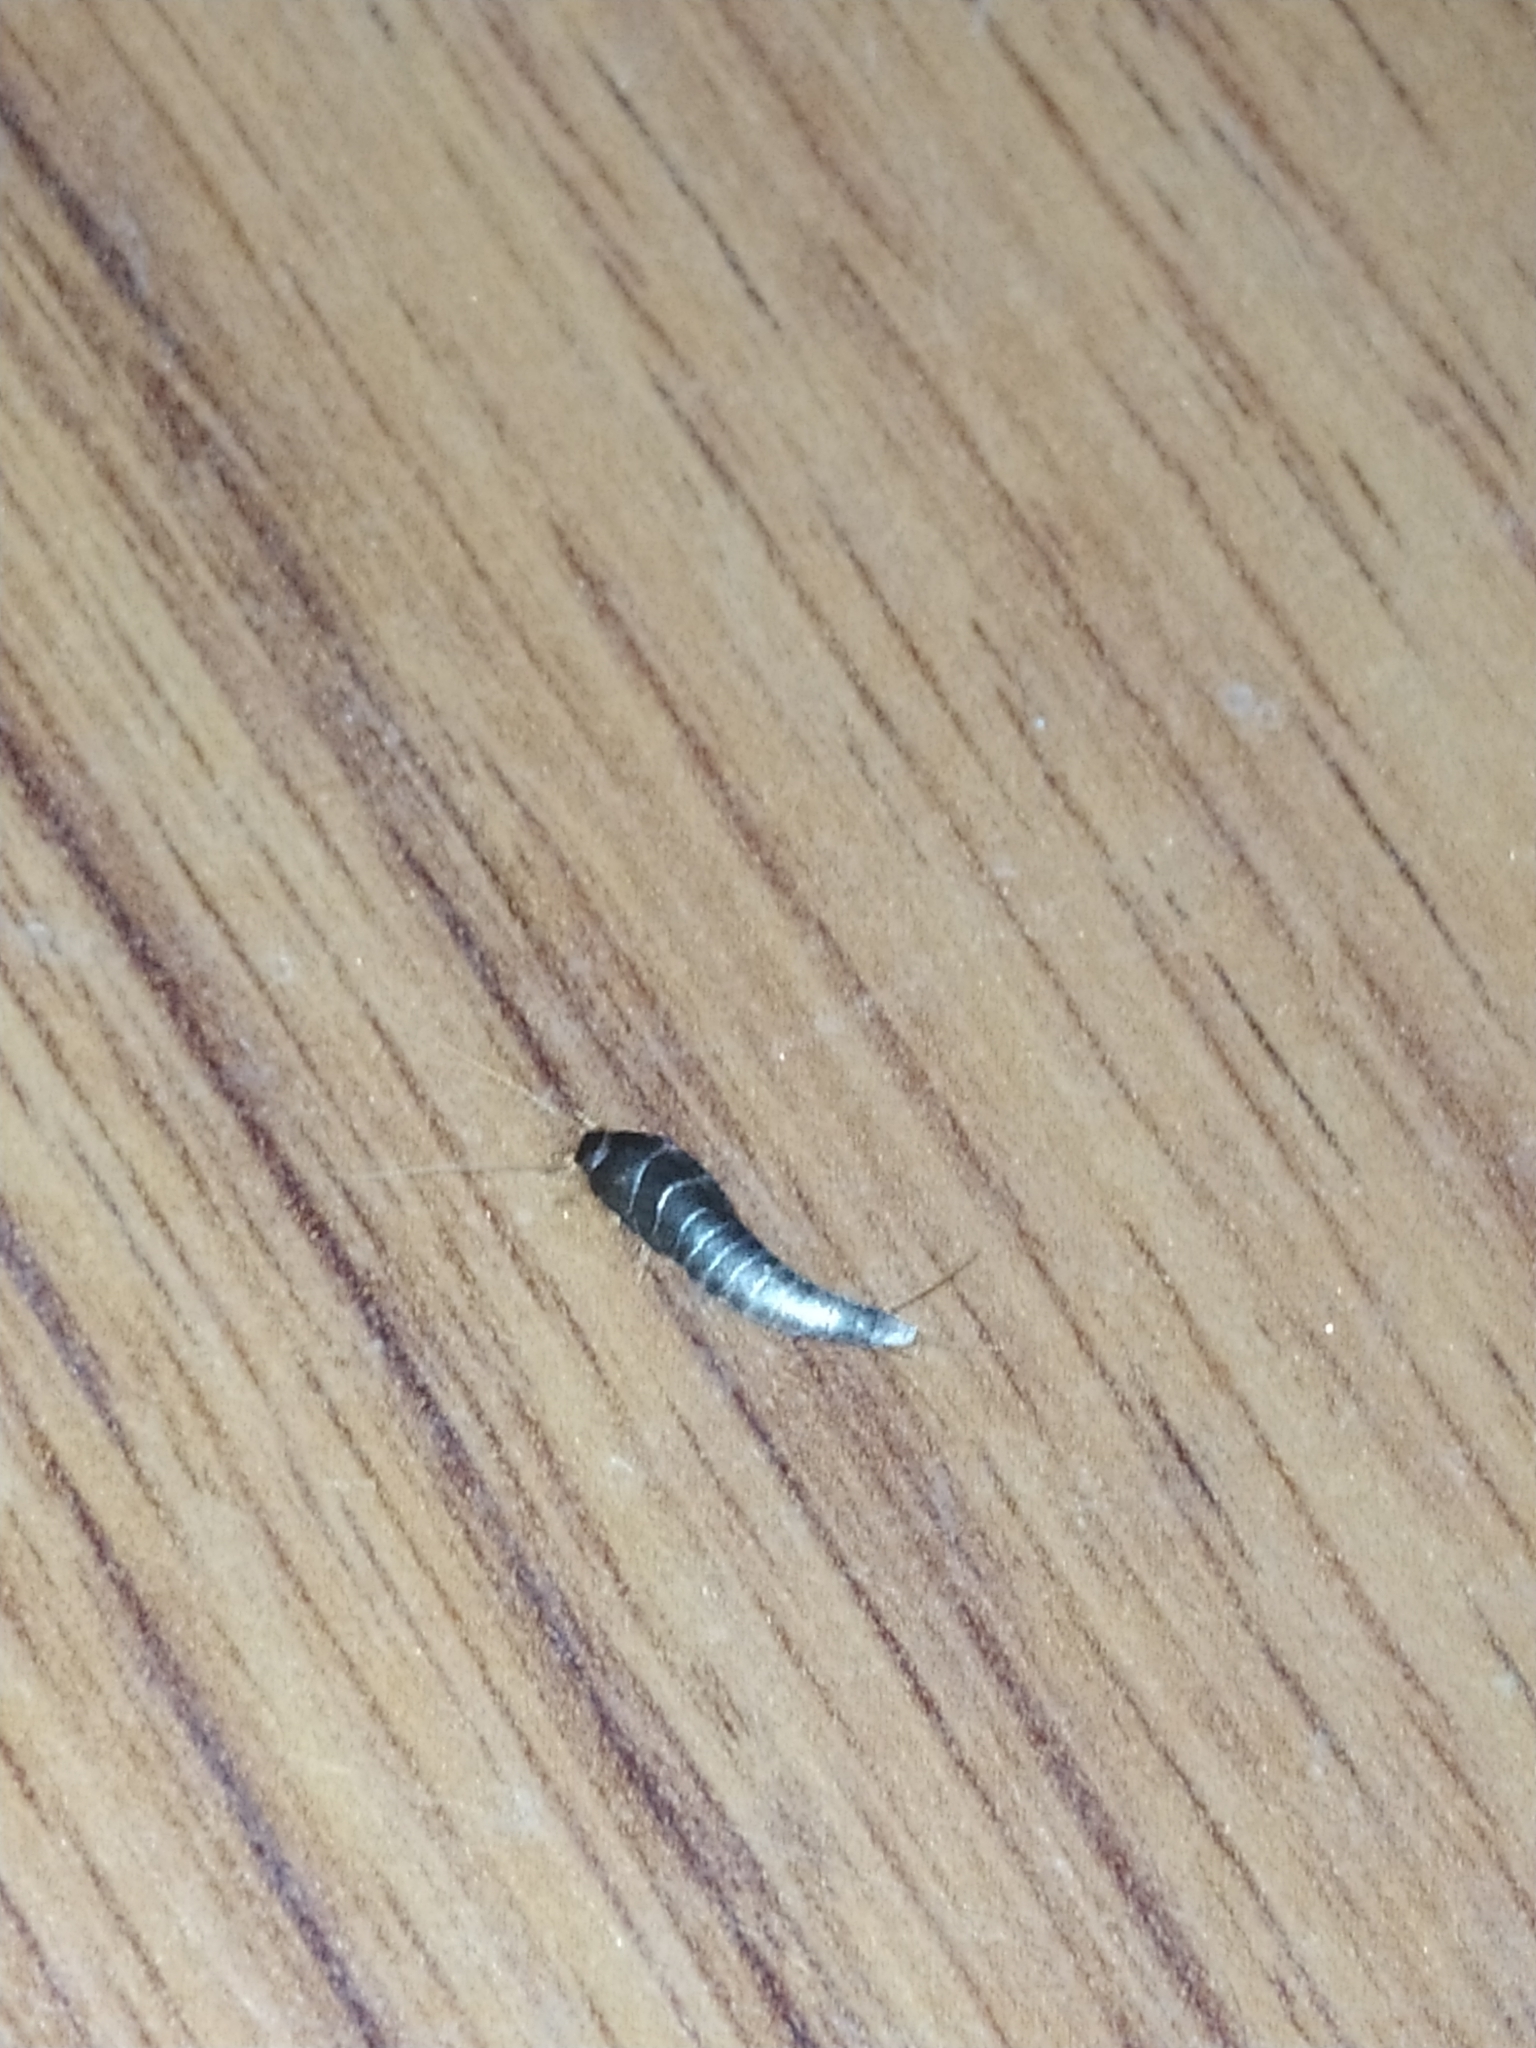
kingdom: Animalia
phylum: Arthropoda
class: Insecta
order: Zygentoma
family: Lepismatidae
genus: Lepisma
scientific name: Lepisma saccharinum
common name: Silverfish
